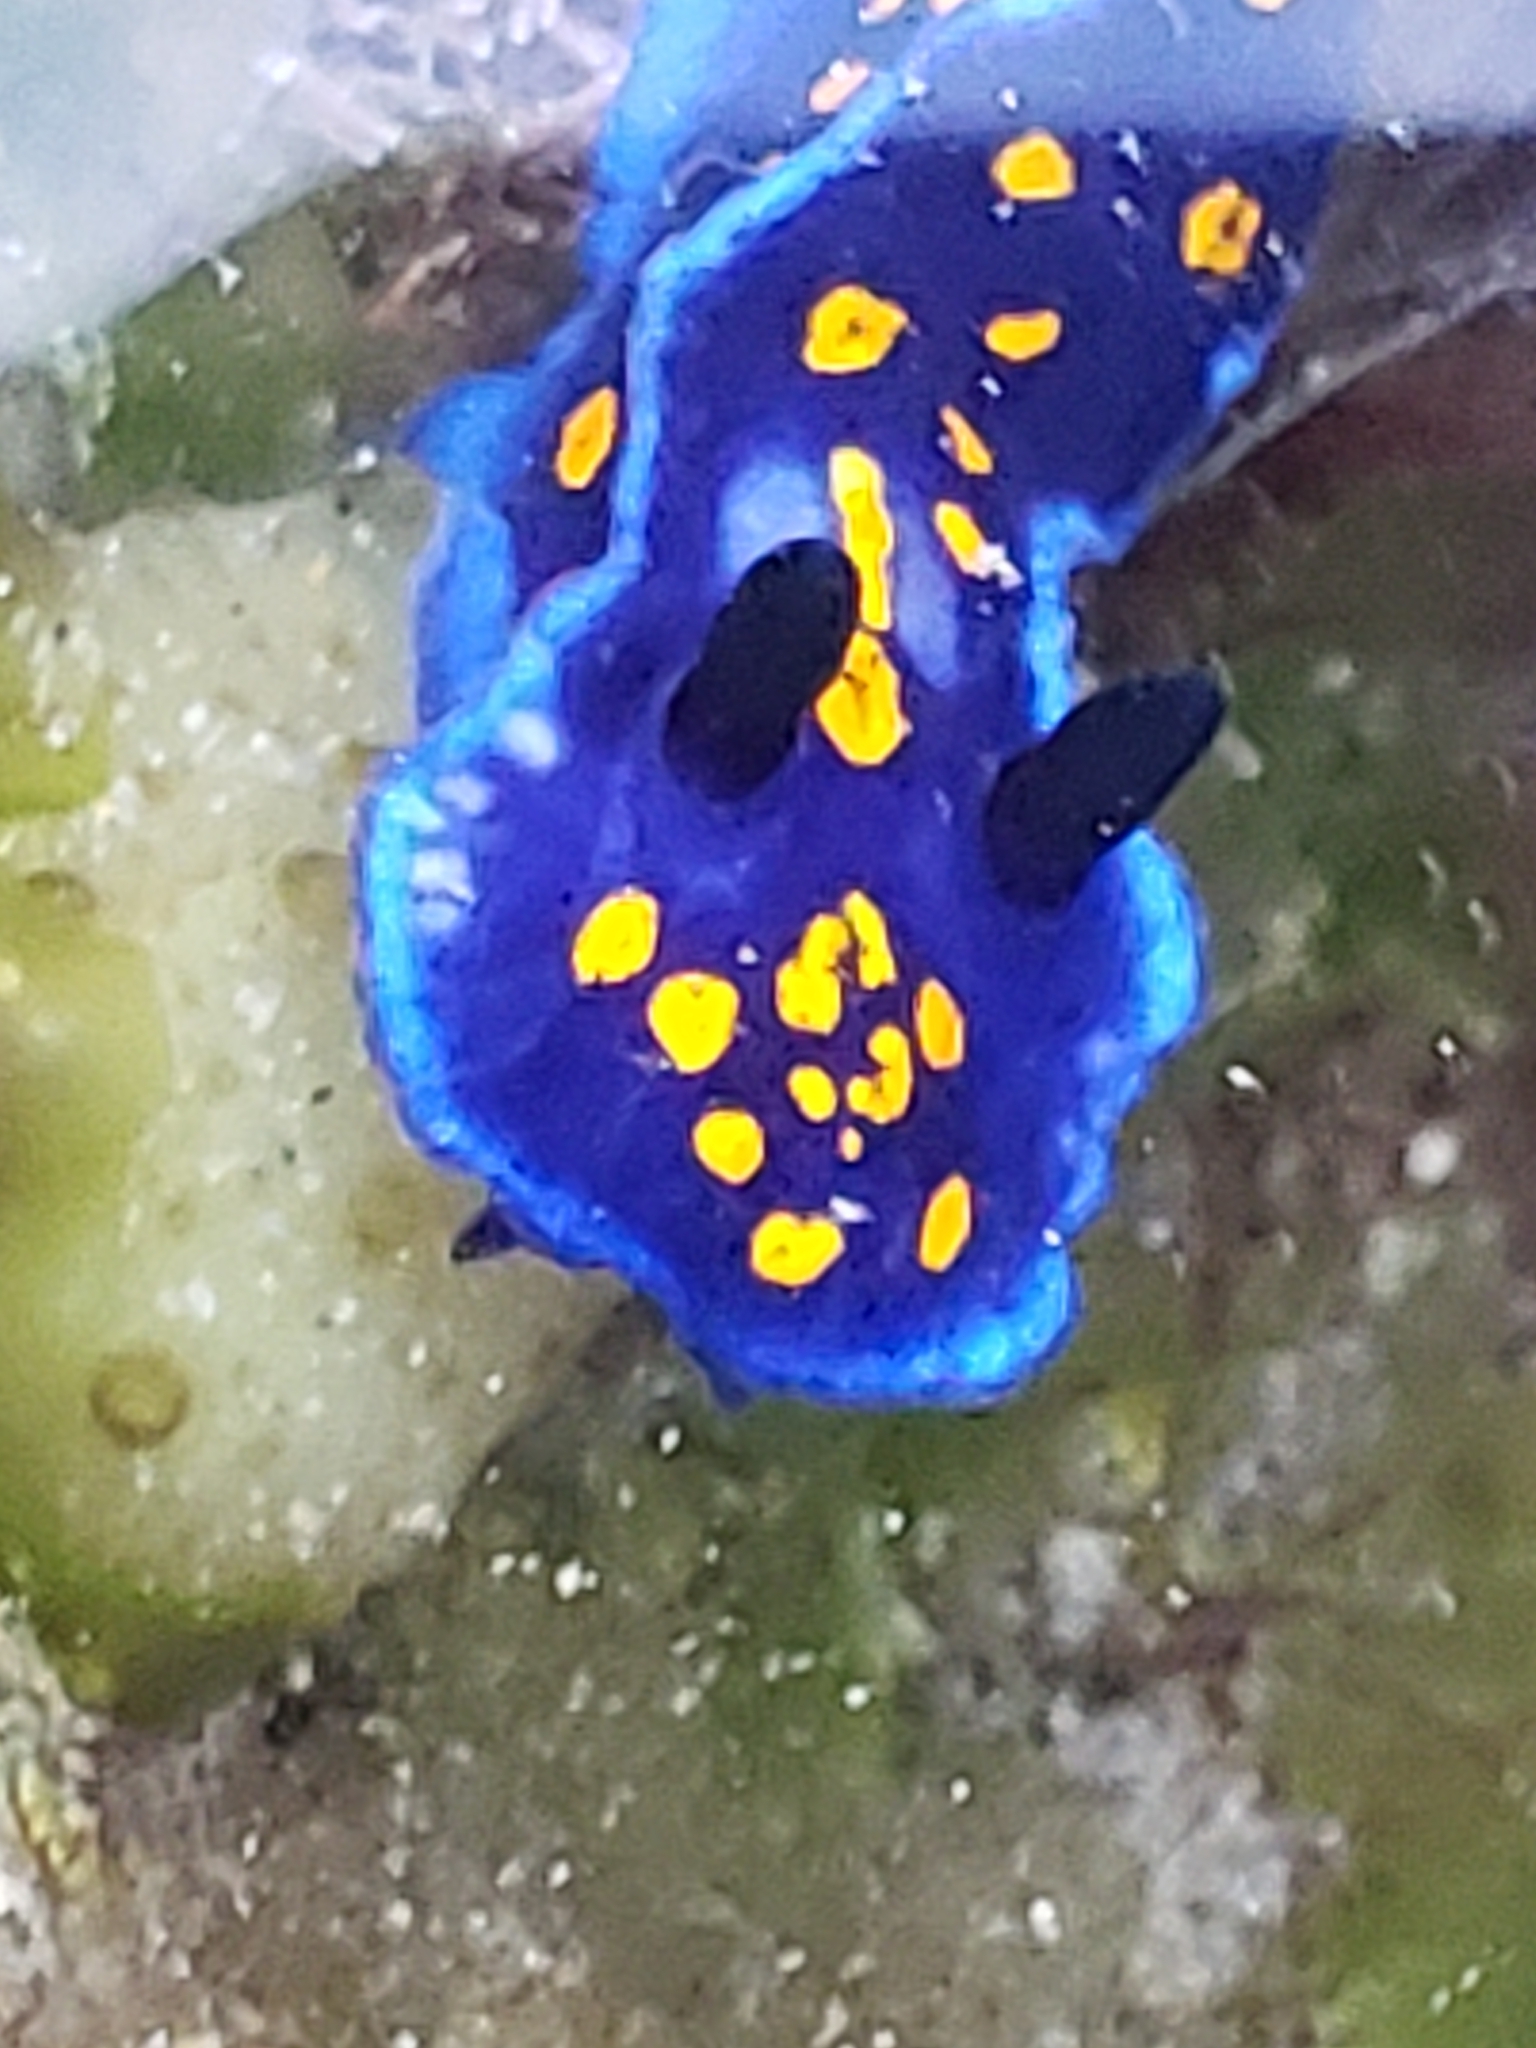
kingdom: Animalia
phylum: Mollusca
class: Gastropoda
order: Nudibranchia
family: Chromodorididae
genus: Felimare
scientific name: Felimare californiensis
